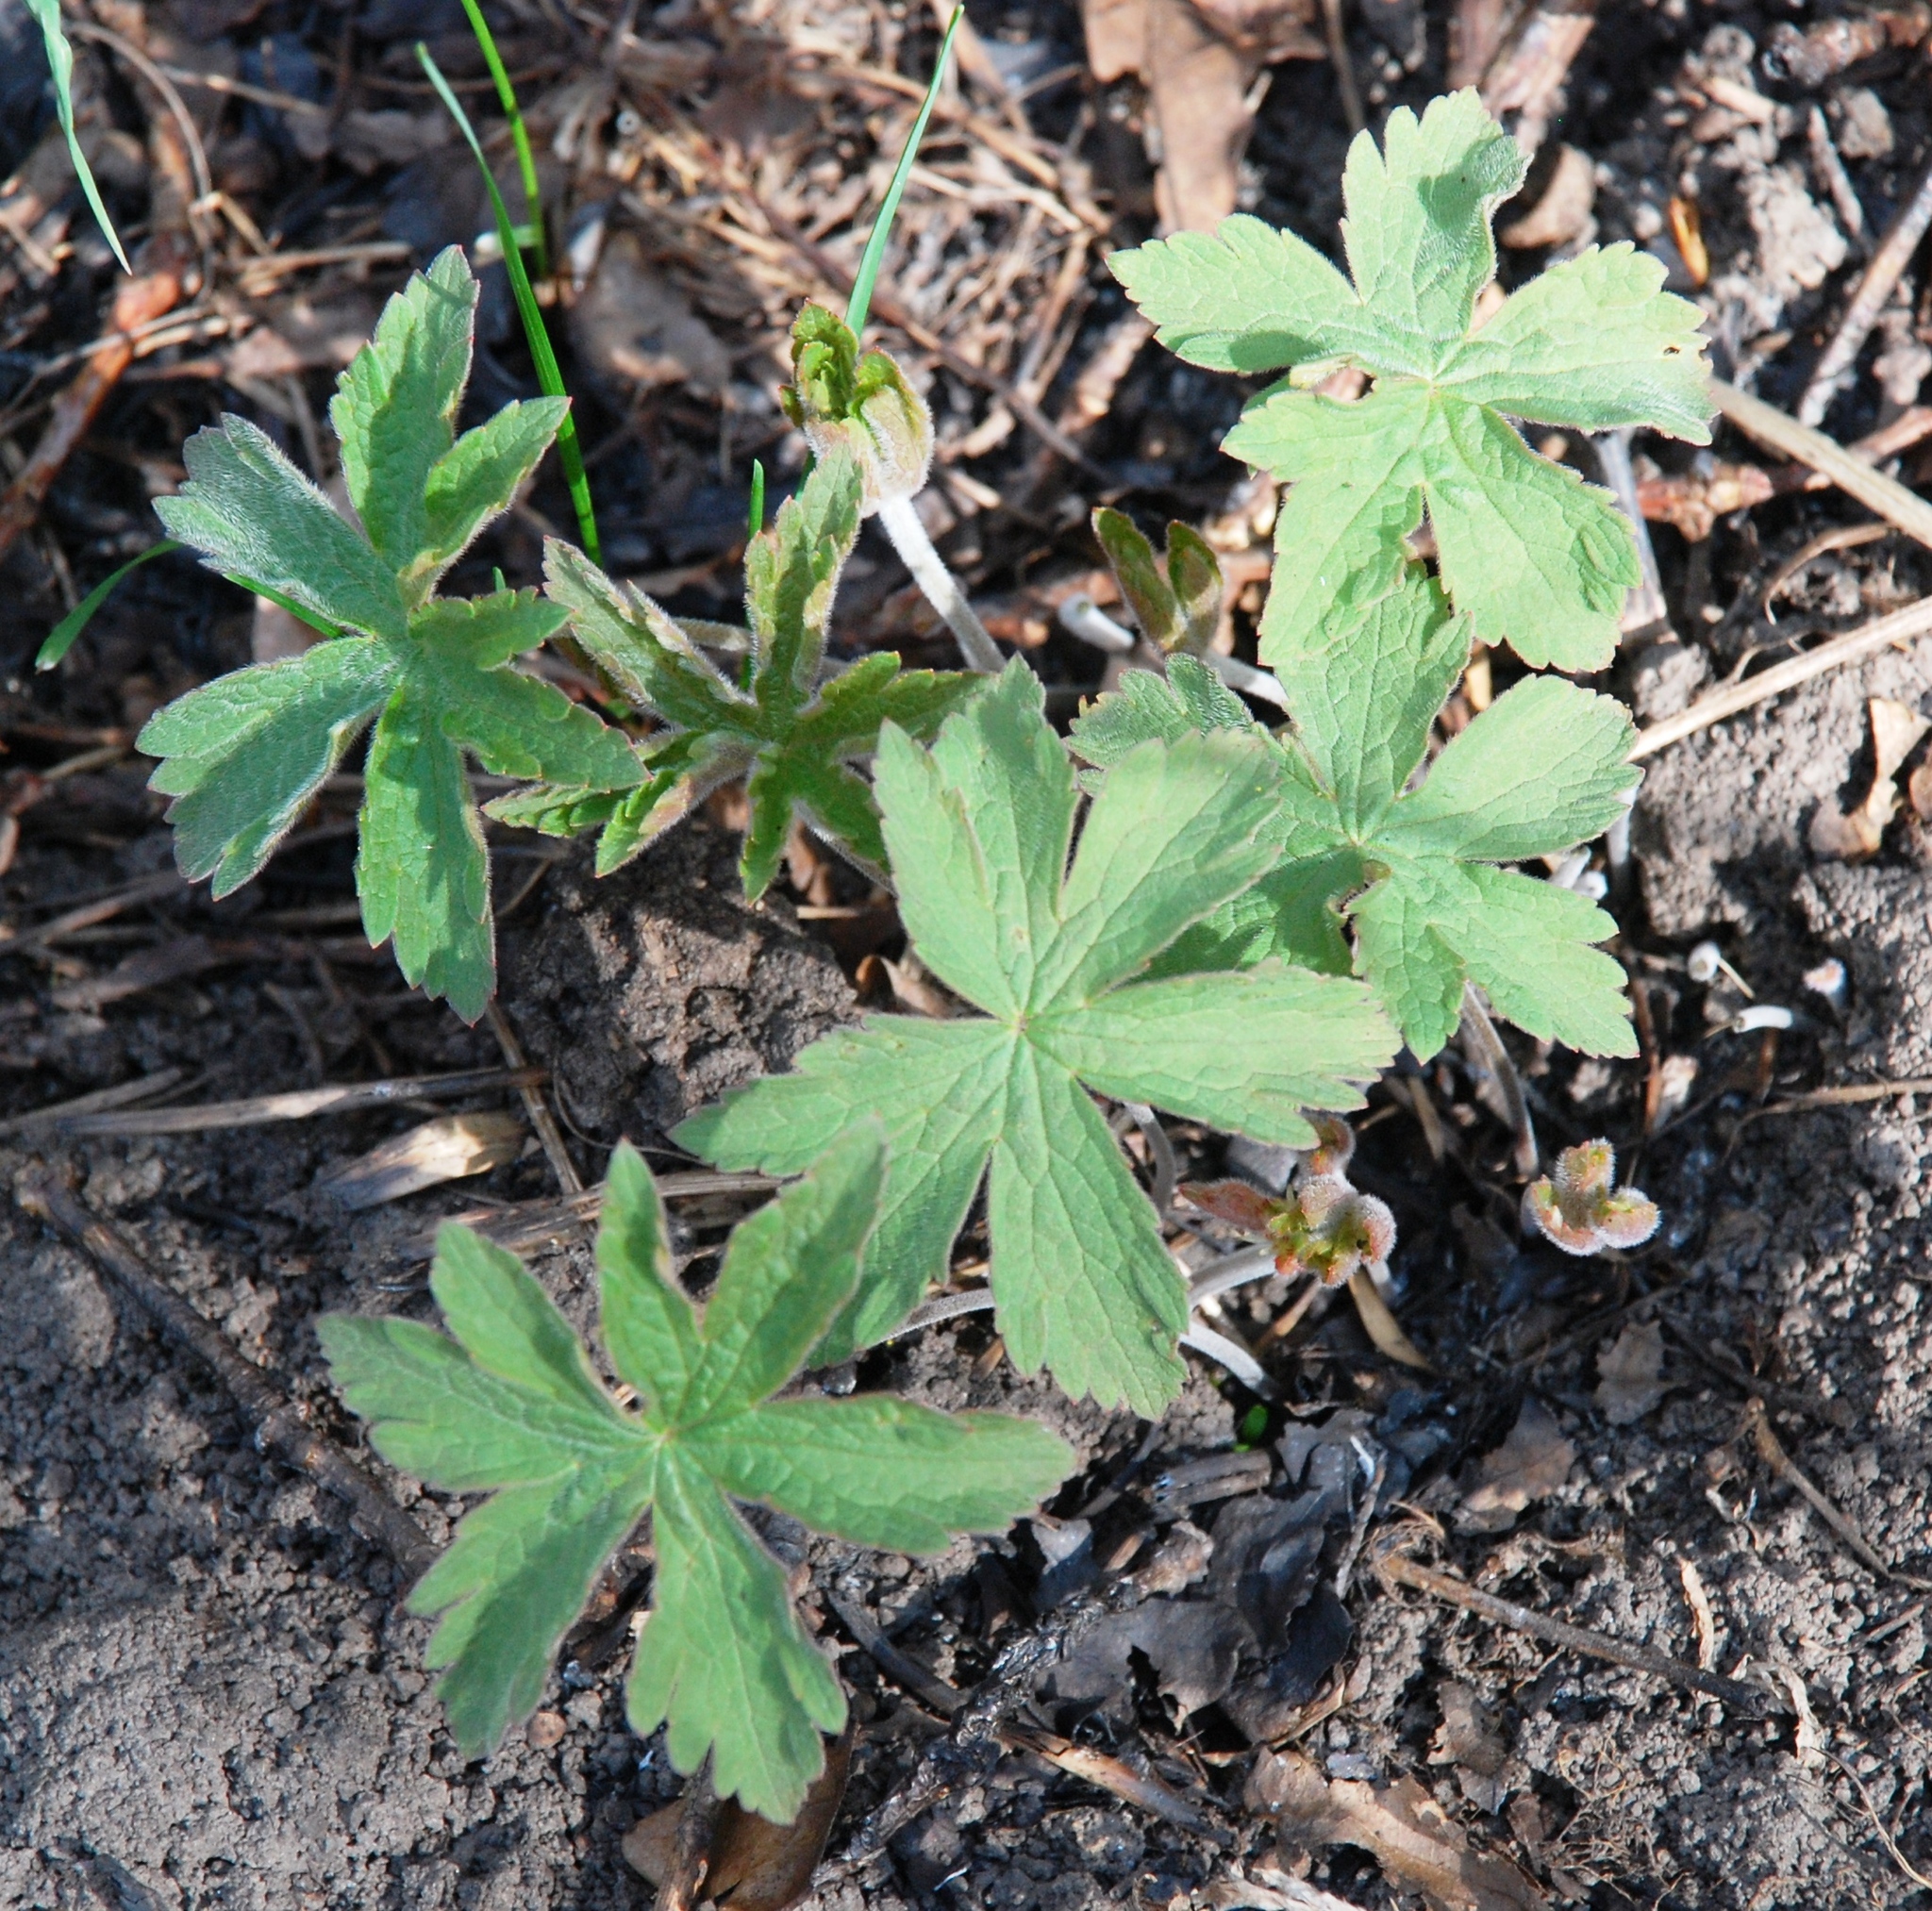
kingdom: Plantae
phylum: Tracheophyta
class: Magnoliopsida
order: Geraniales
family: Geraniaceae
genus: Geranium
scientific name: Geranium sylvaticum
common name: Wood crane's-bill
